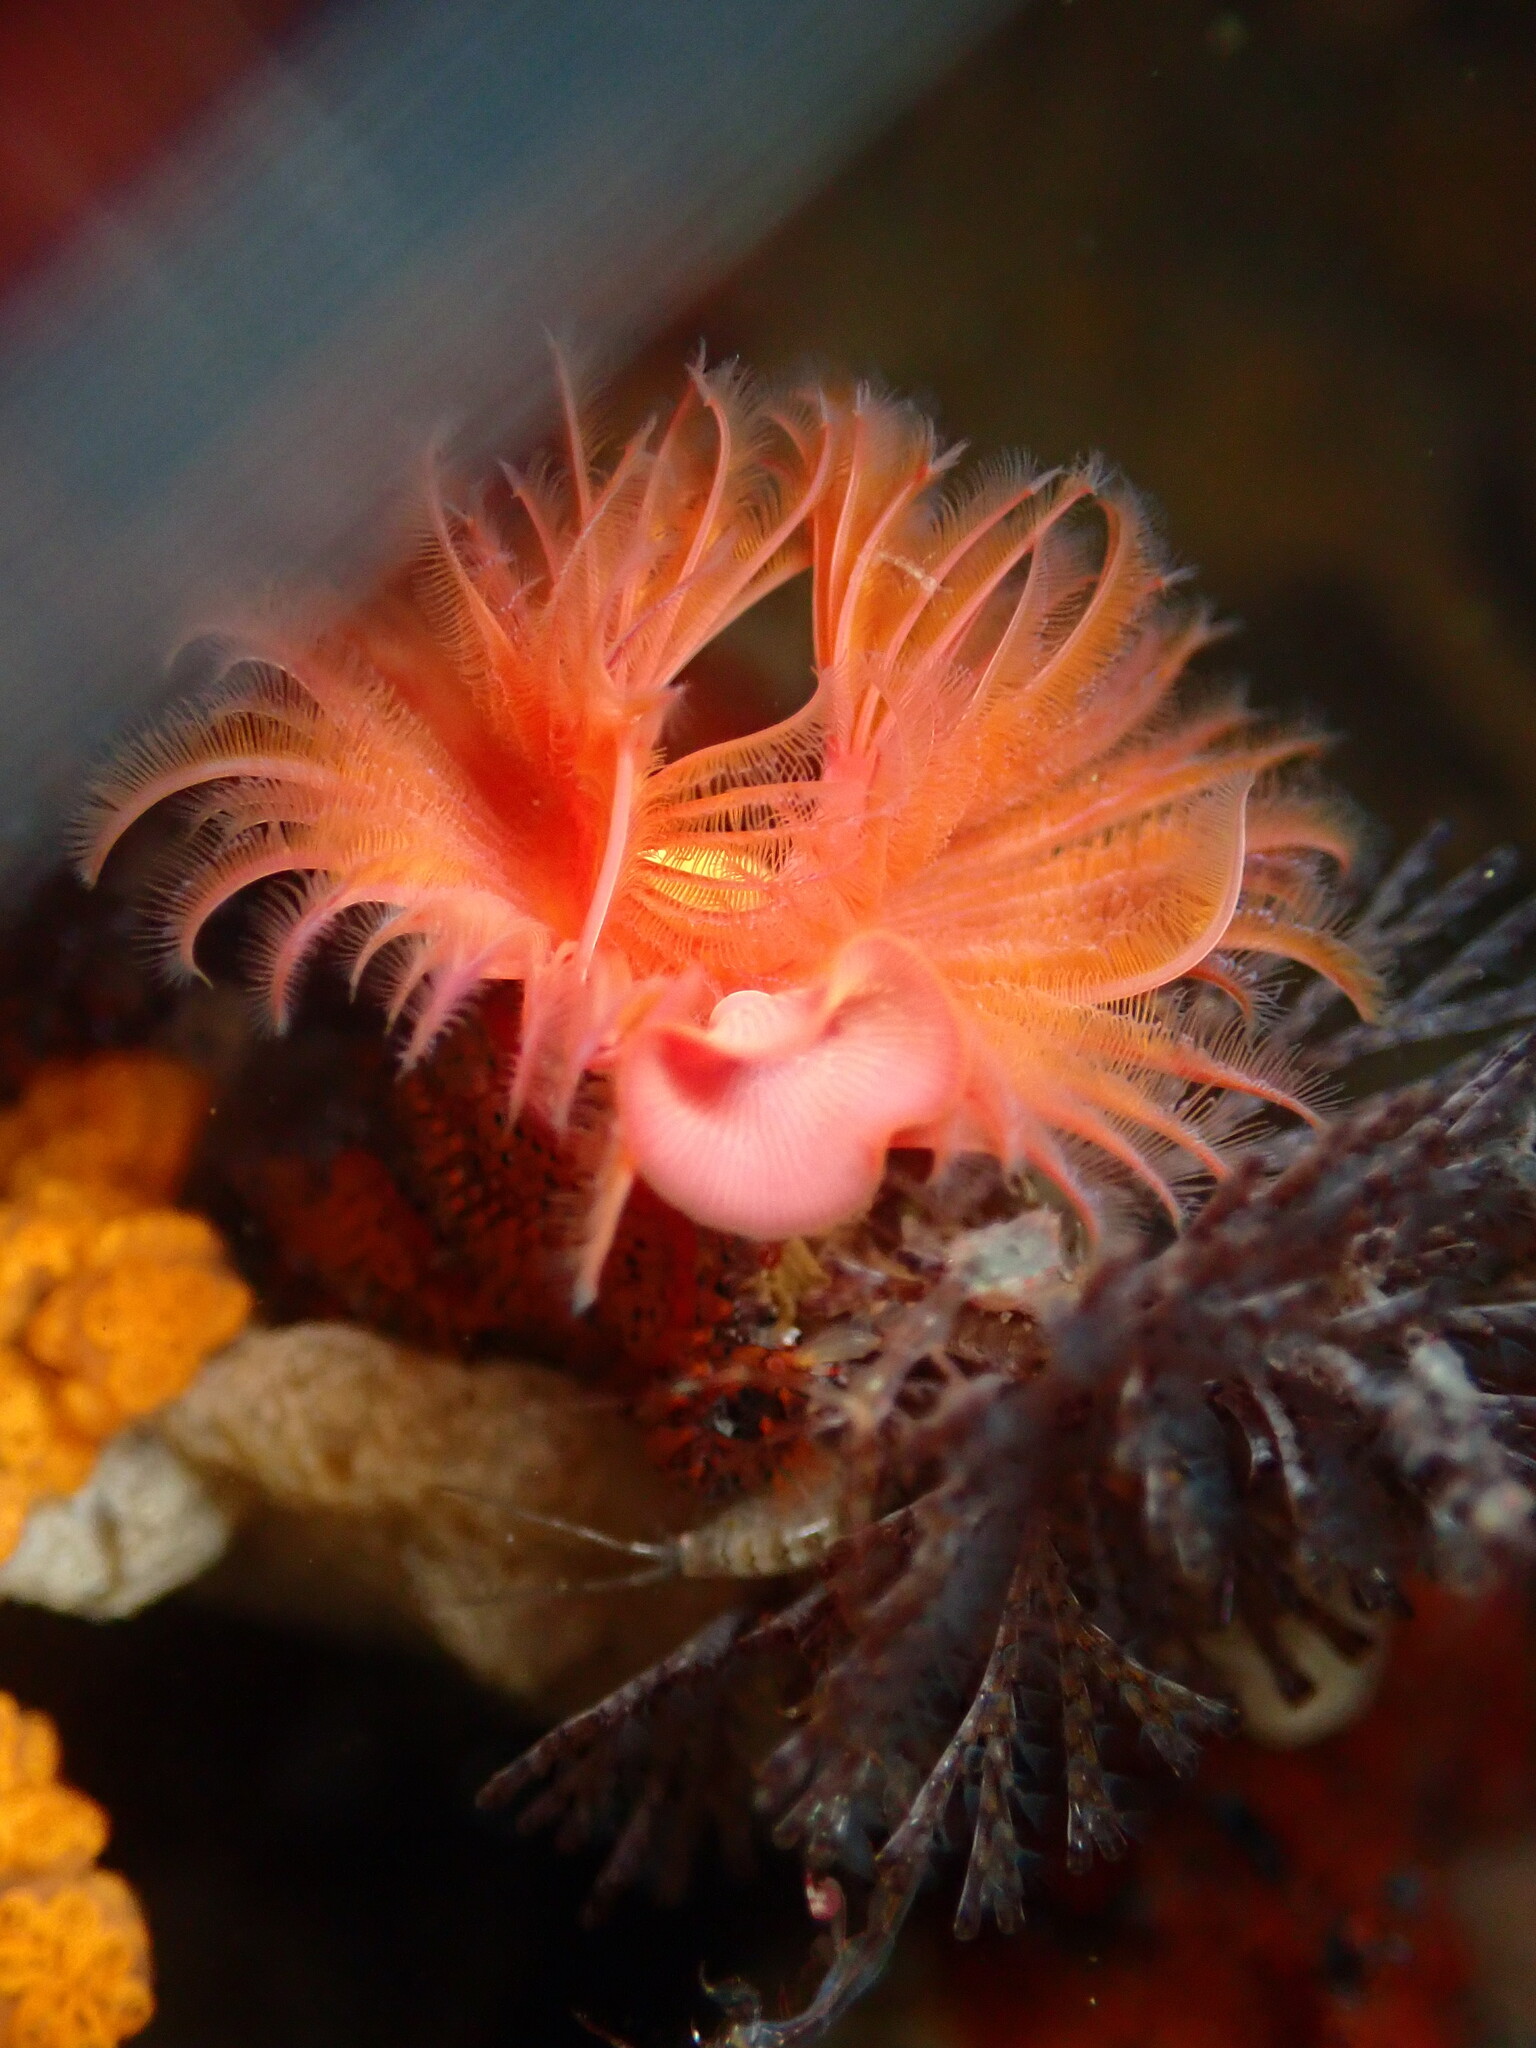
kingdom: Animalia
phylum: Annelida
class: Polychaeta
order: Sabellida
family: Serpulidae
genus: Serpula
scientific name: Serpula columbiana
